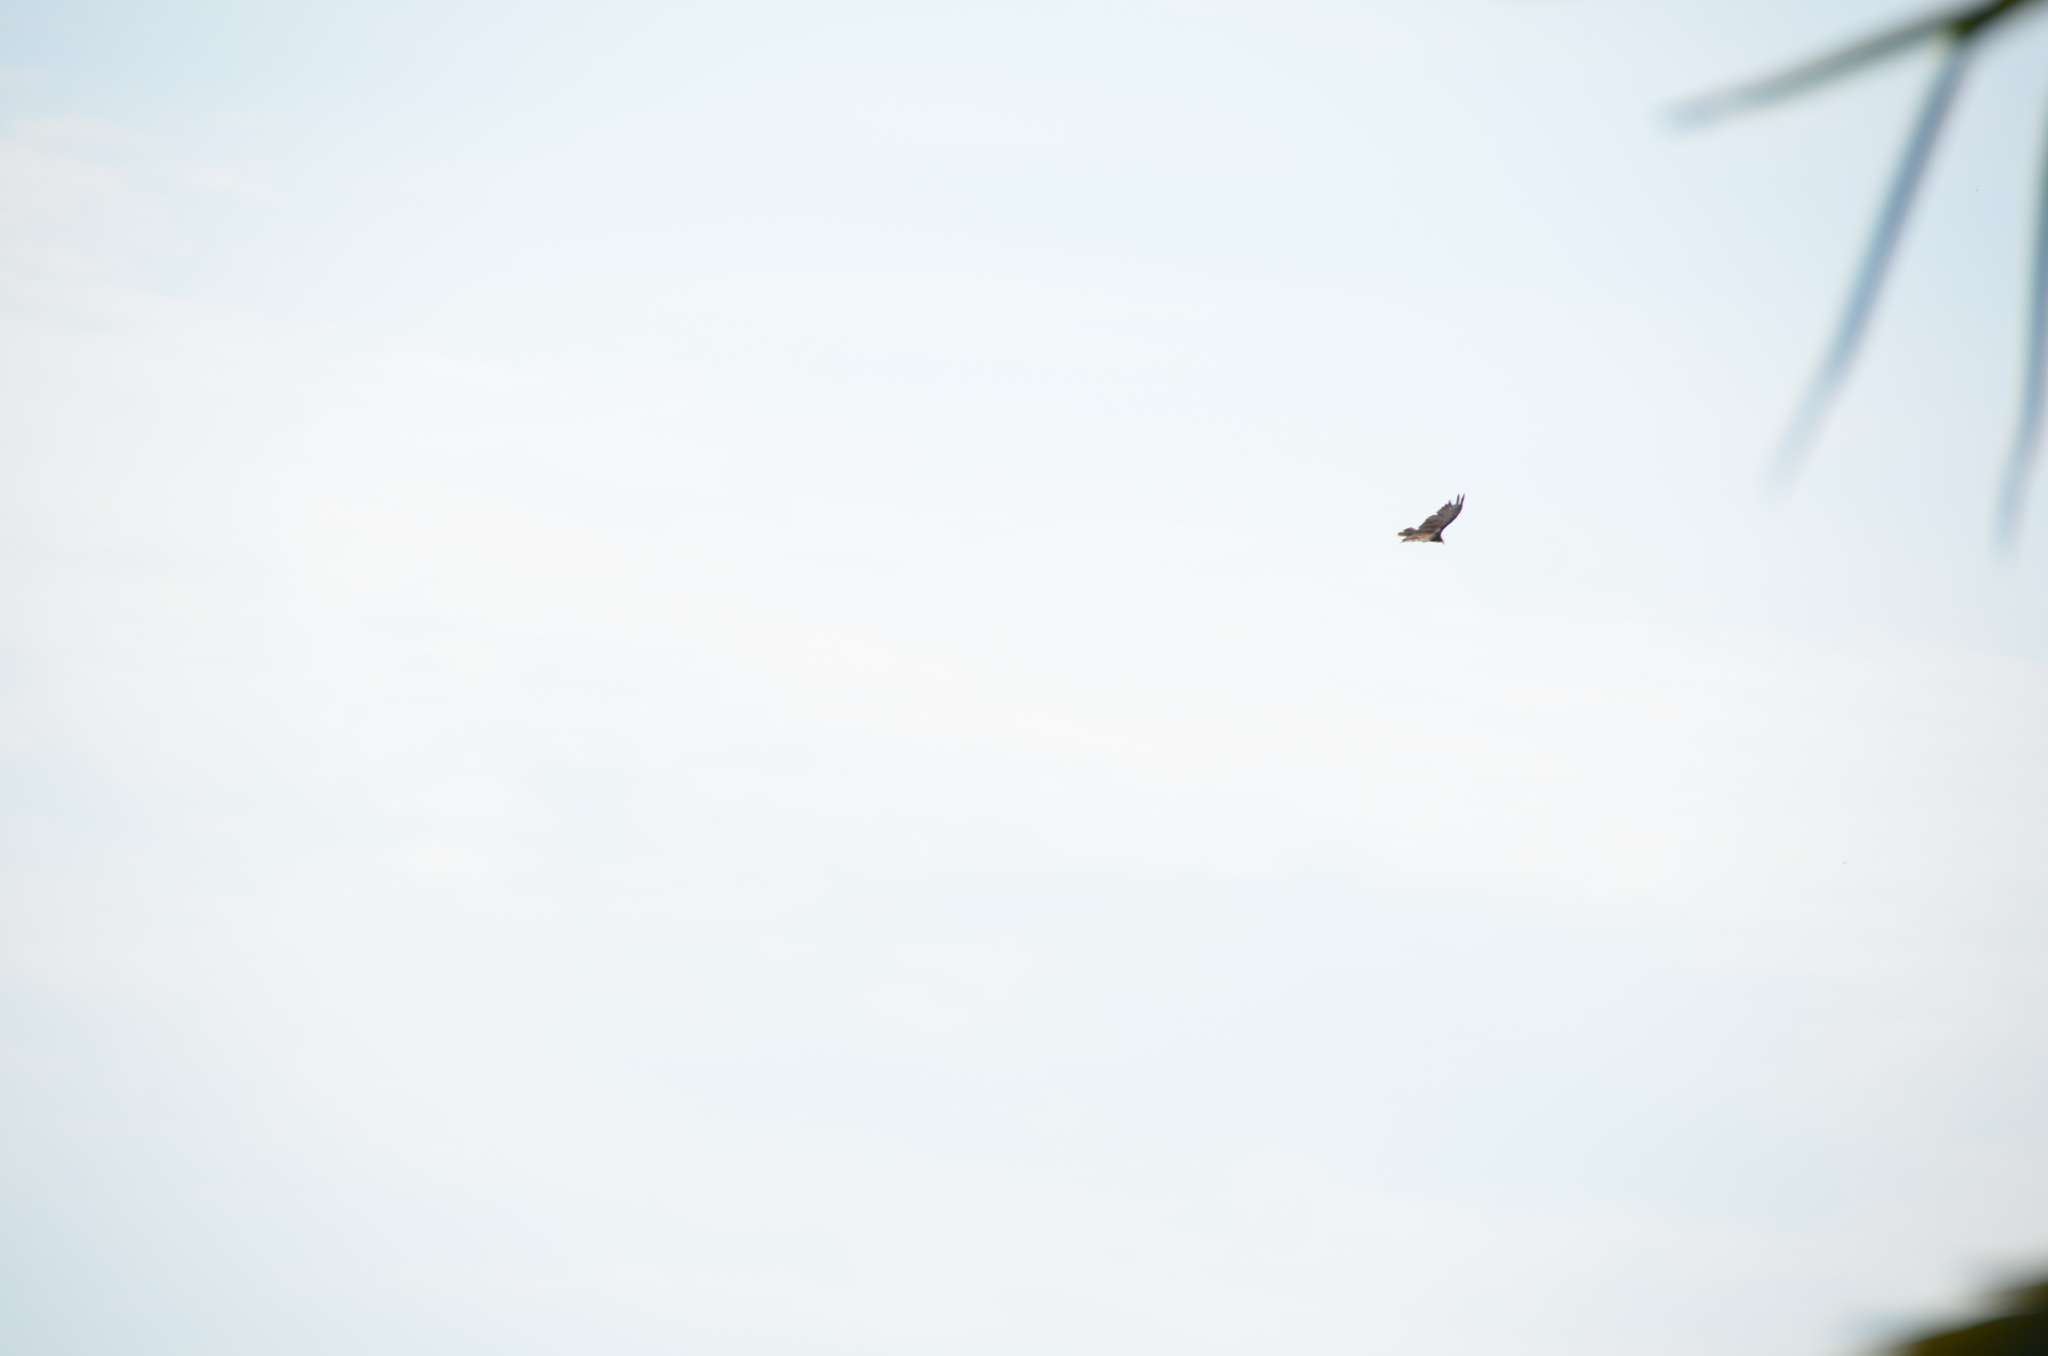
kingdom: Animalia
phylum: Chordata
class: Aves
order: Accipitriformes
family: Cathartidae
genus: Cathartes
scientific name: Cathartes aura
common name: Turkey vulture
